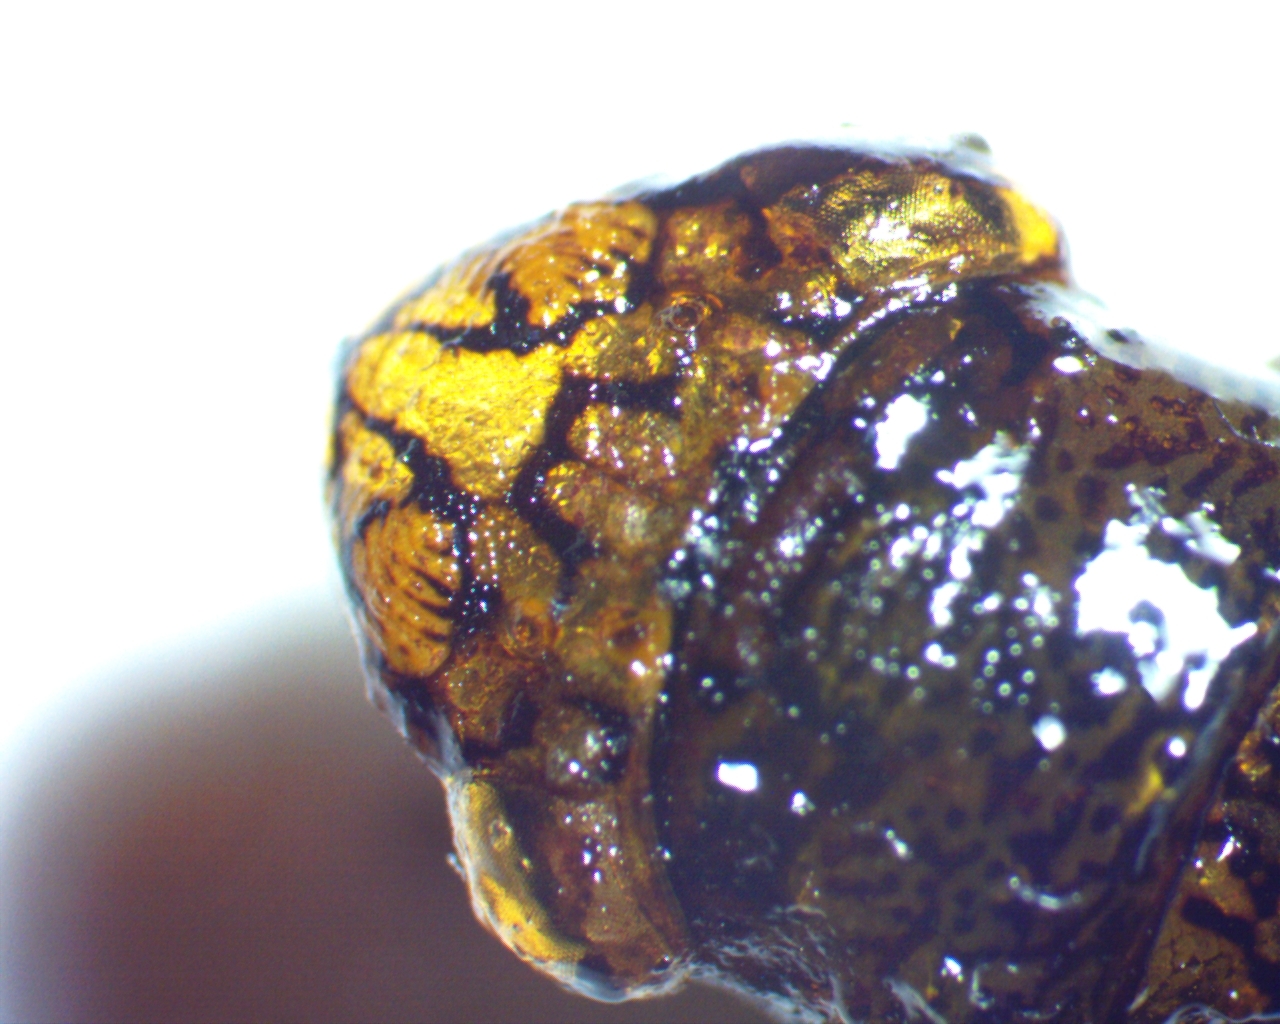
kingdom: Animalia
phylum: Arthropoda
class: Insecta
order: Hemiptera
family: Cicadellidae
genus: Oncometopia
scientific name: Oncometopia orbona
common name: Broad-headed sharpshooter
